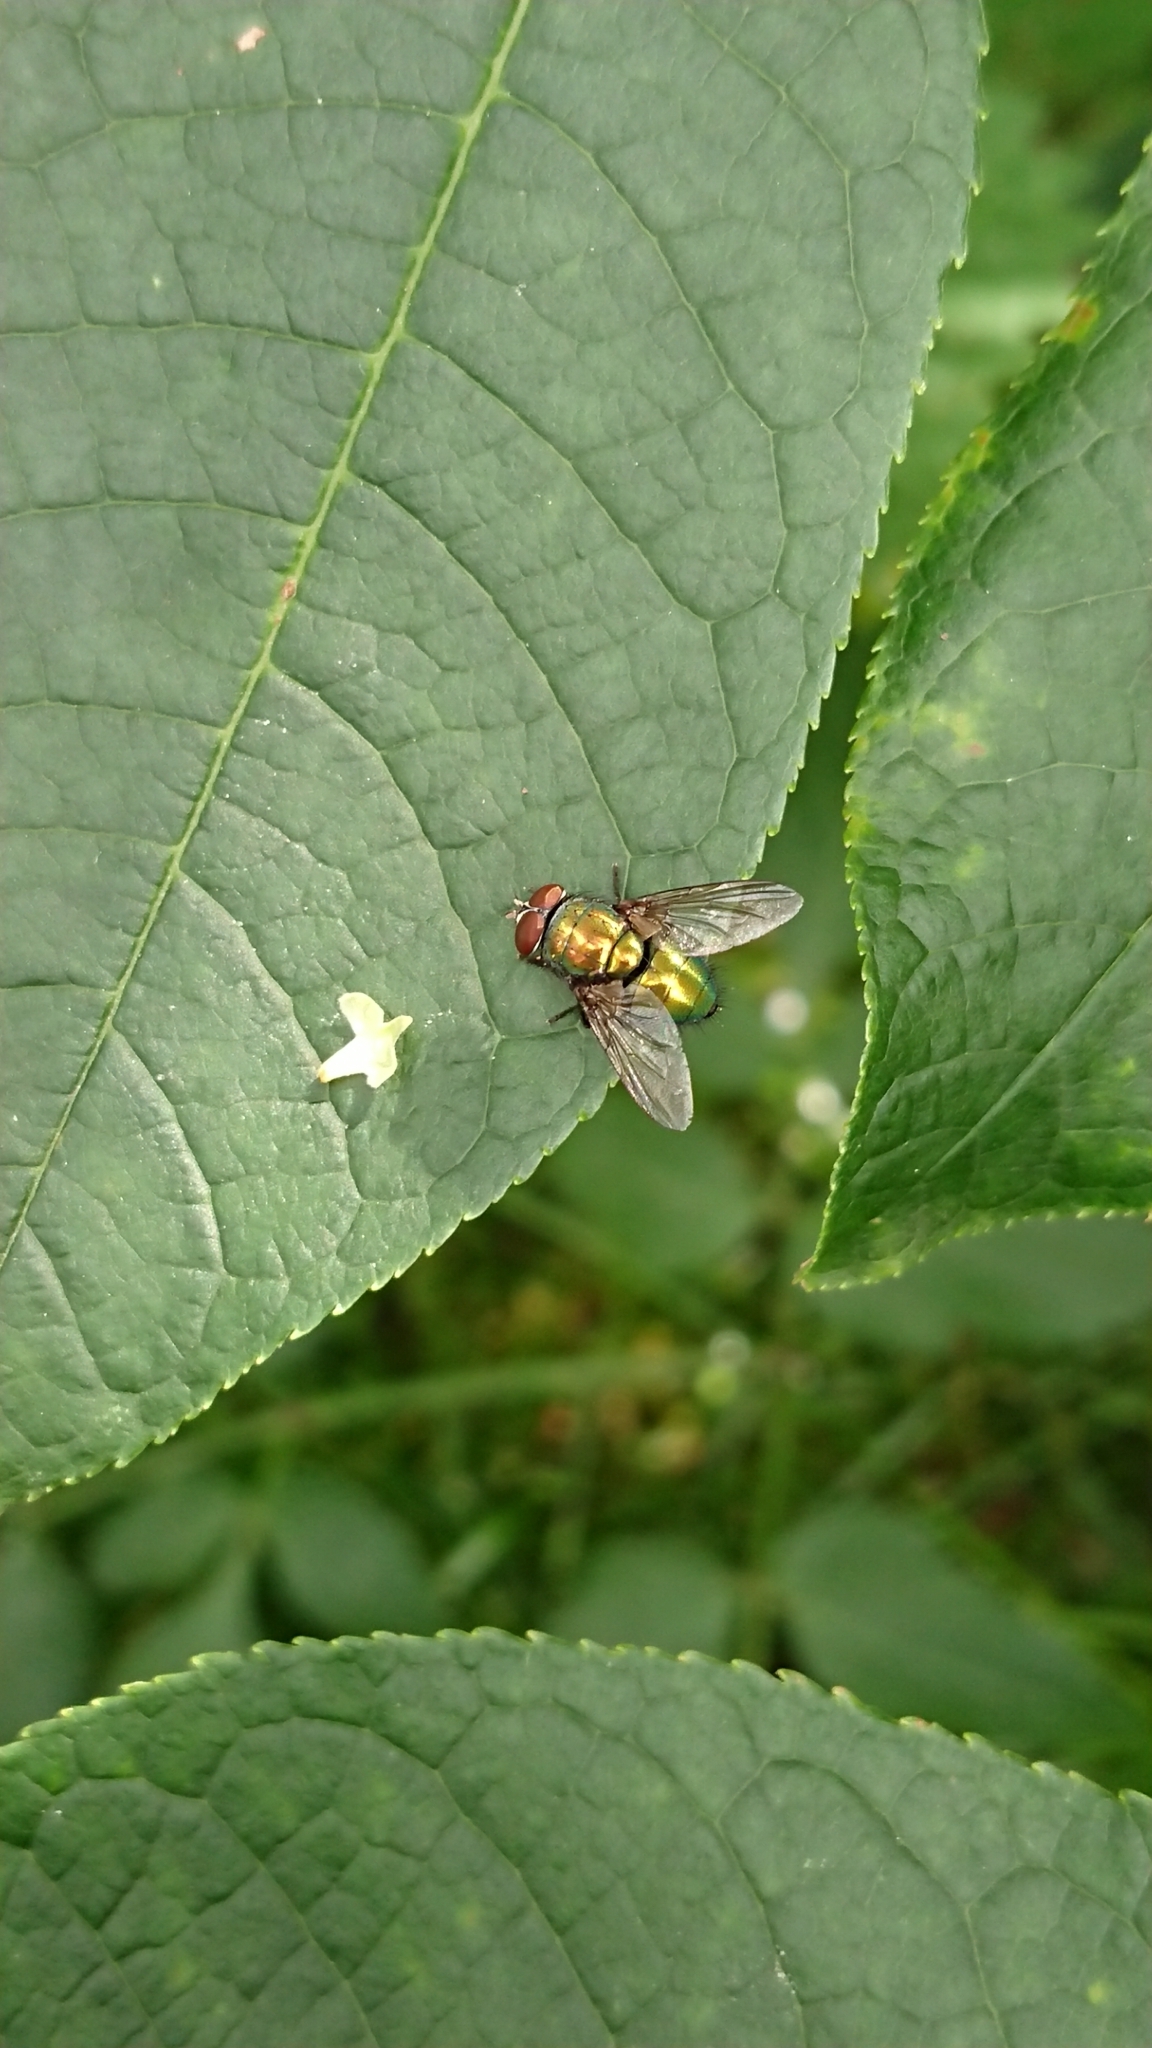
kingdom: Animalia
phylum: Arthropoda
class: Insecta
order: Diptera
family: Calliphoridae
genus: Lucilia
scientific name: Lucilia sericata
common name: Blow fly
